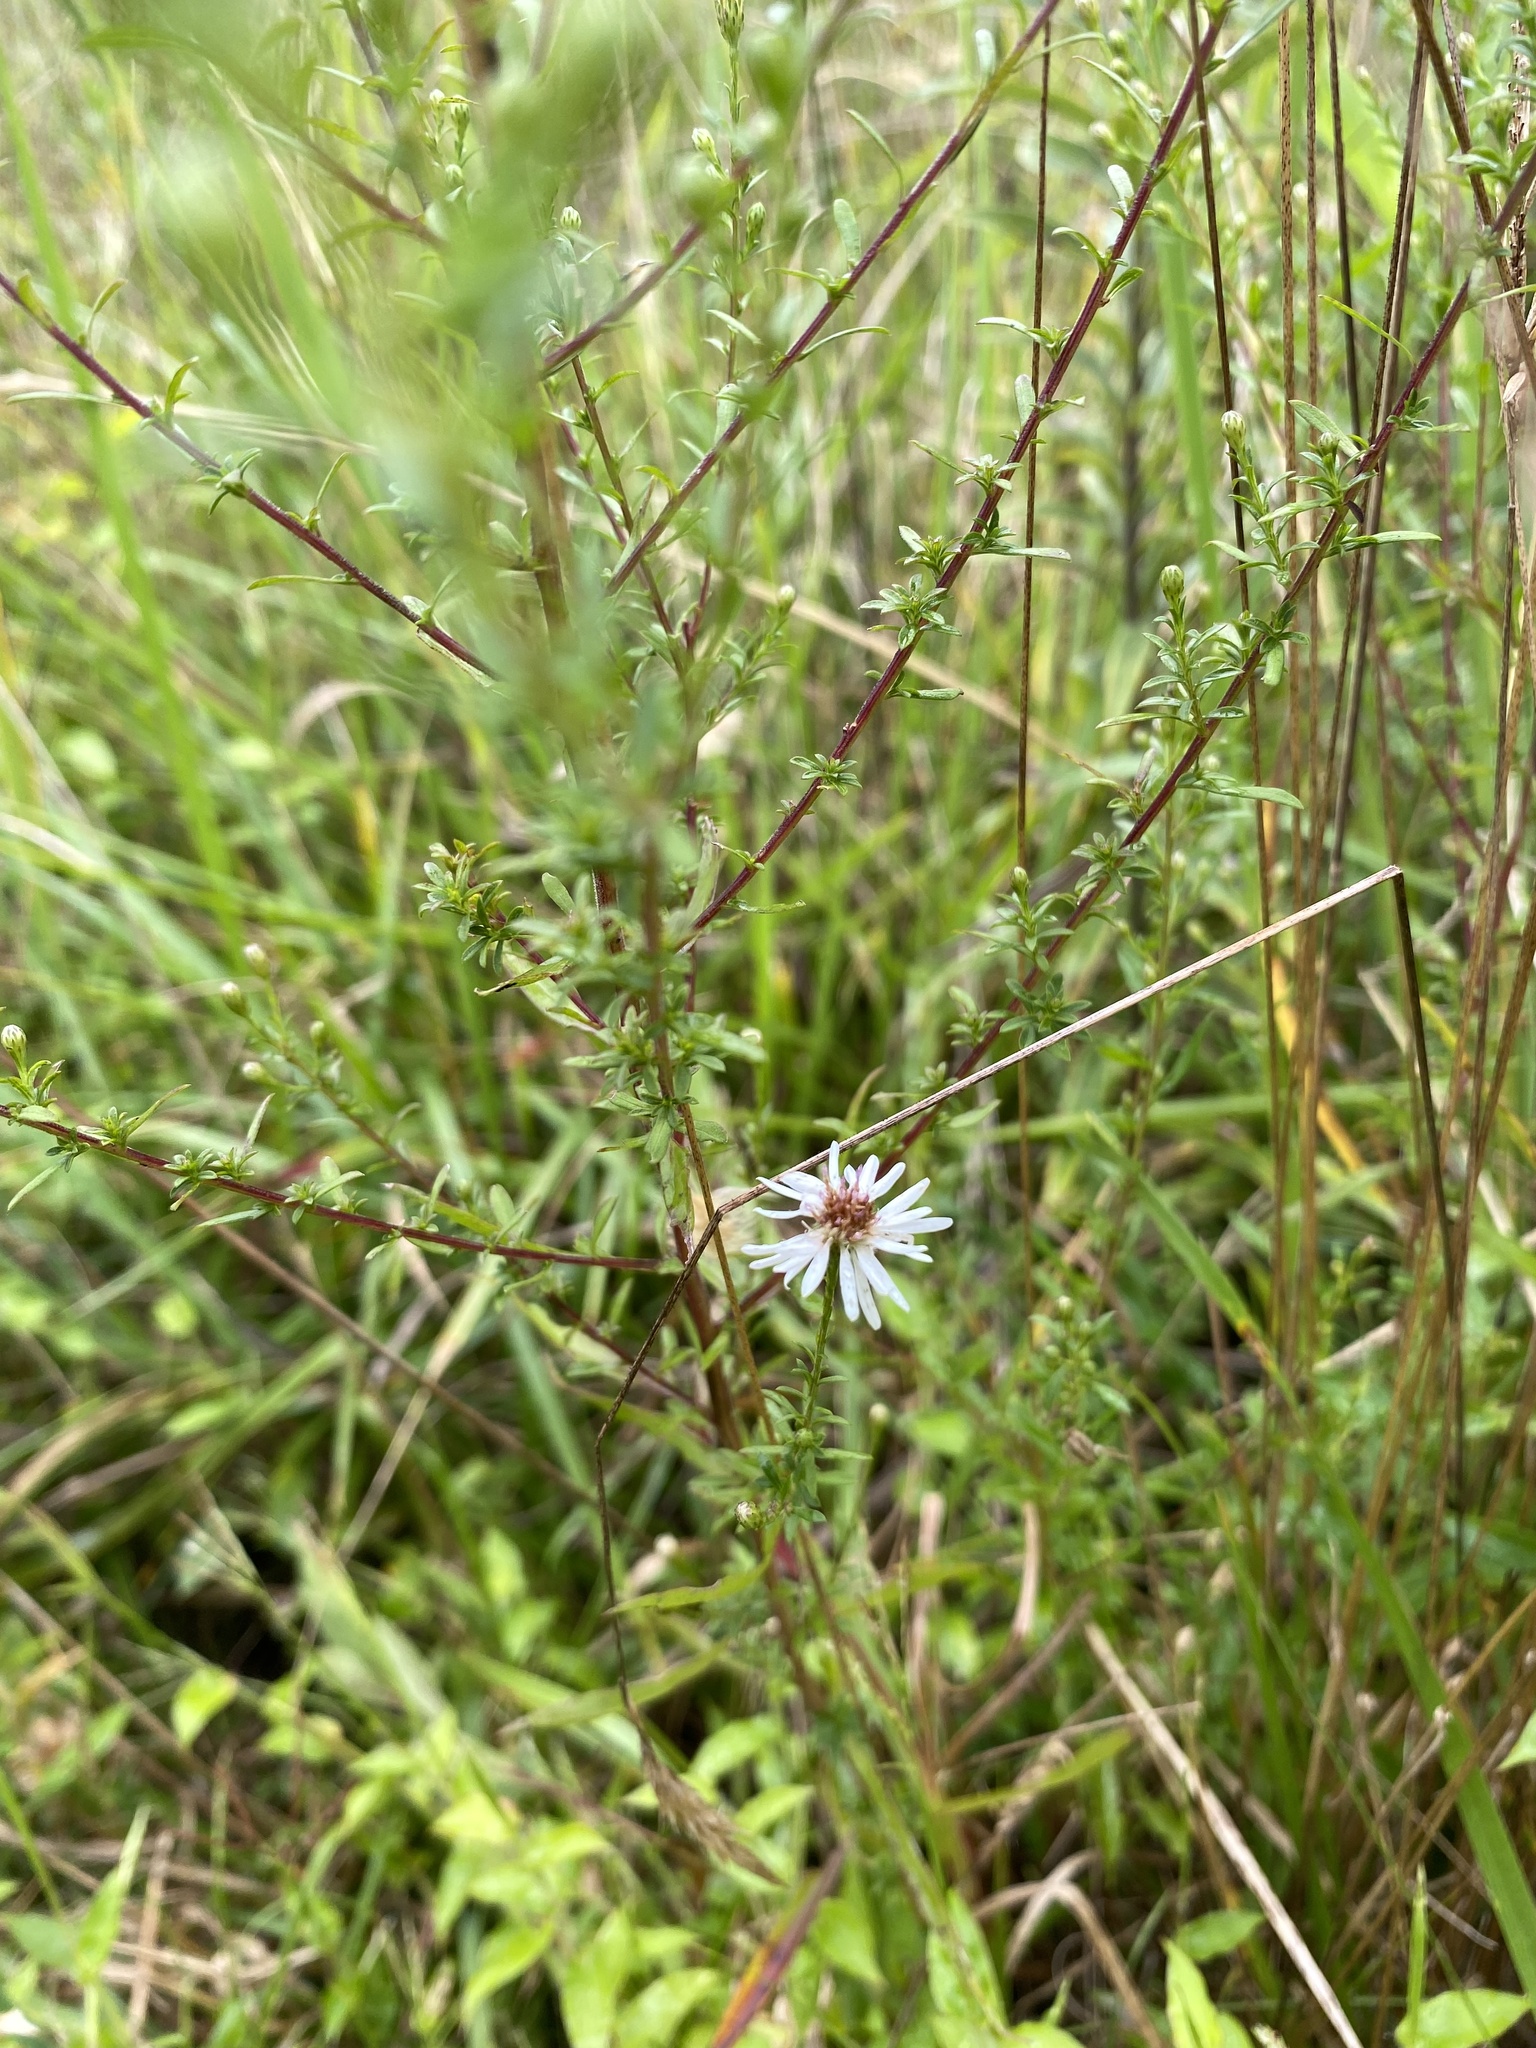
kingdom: Plantae
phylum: Tracheophyta
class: Magnoliopsida
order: Asterales
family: Asteraceae
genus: Symphyotrichum
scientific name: Symphyotrichum dumosum
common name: Bushy aster
